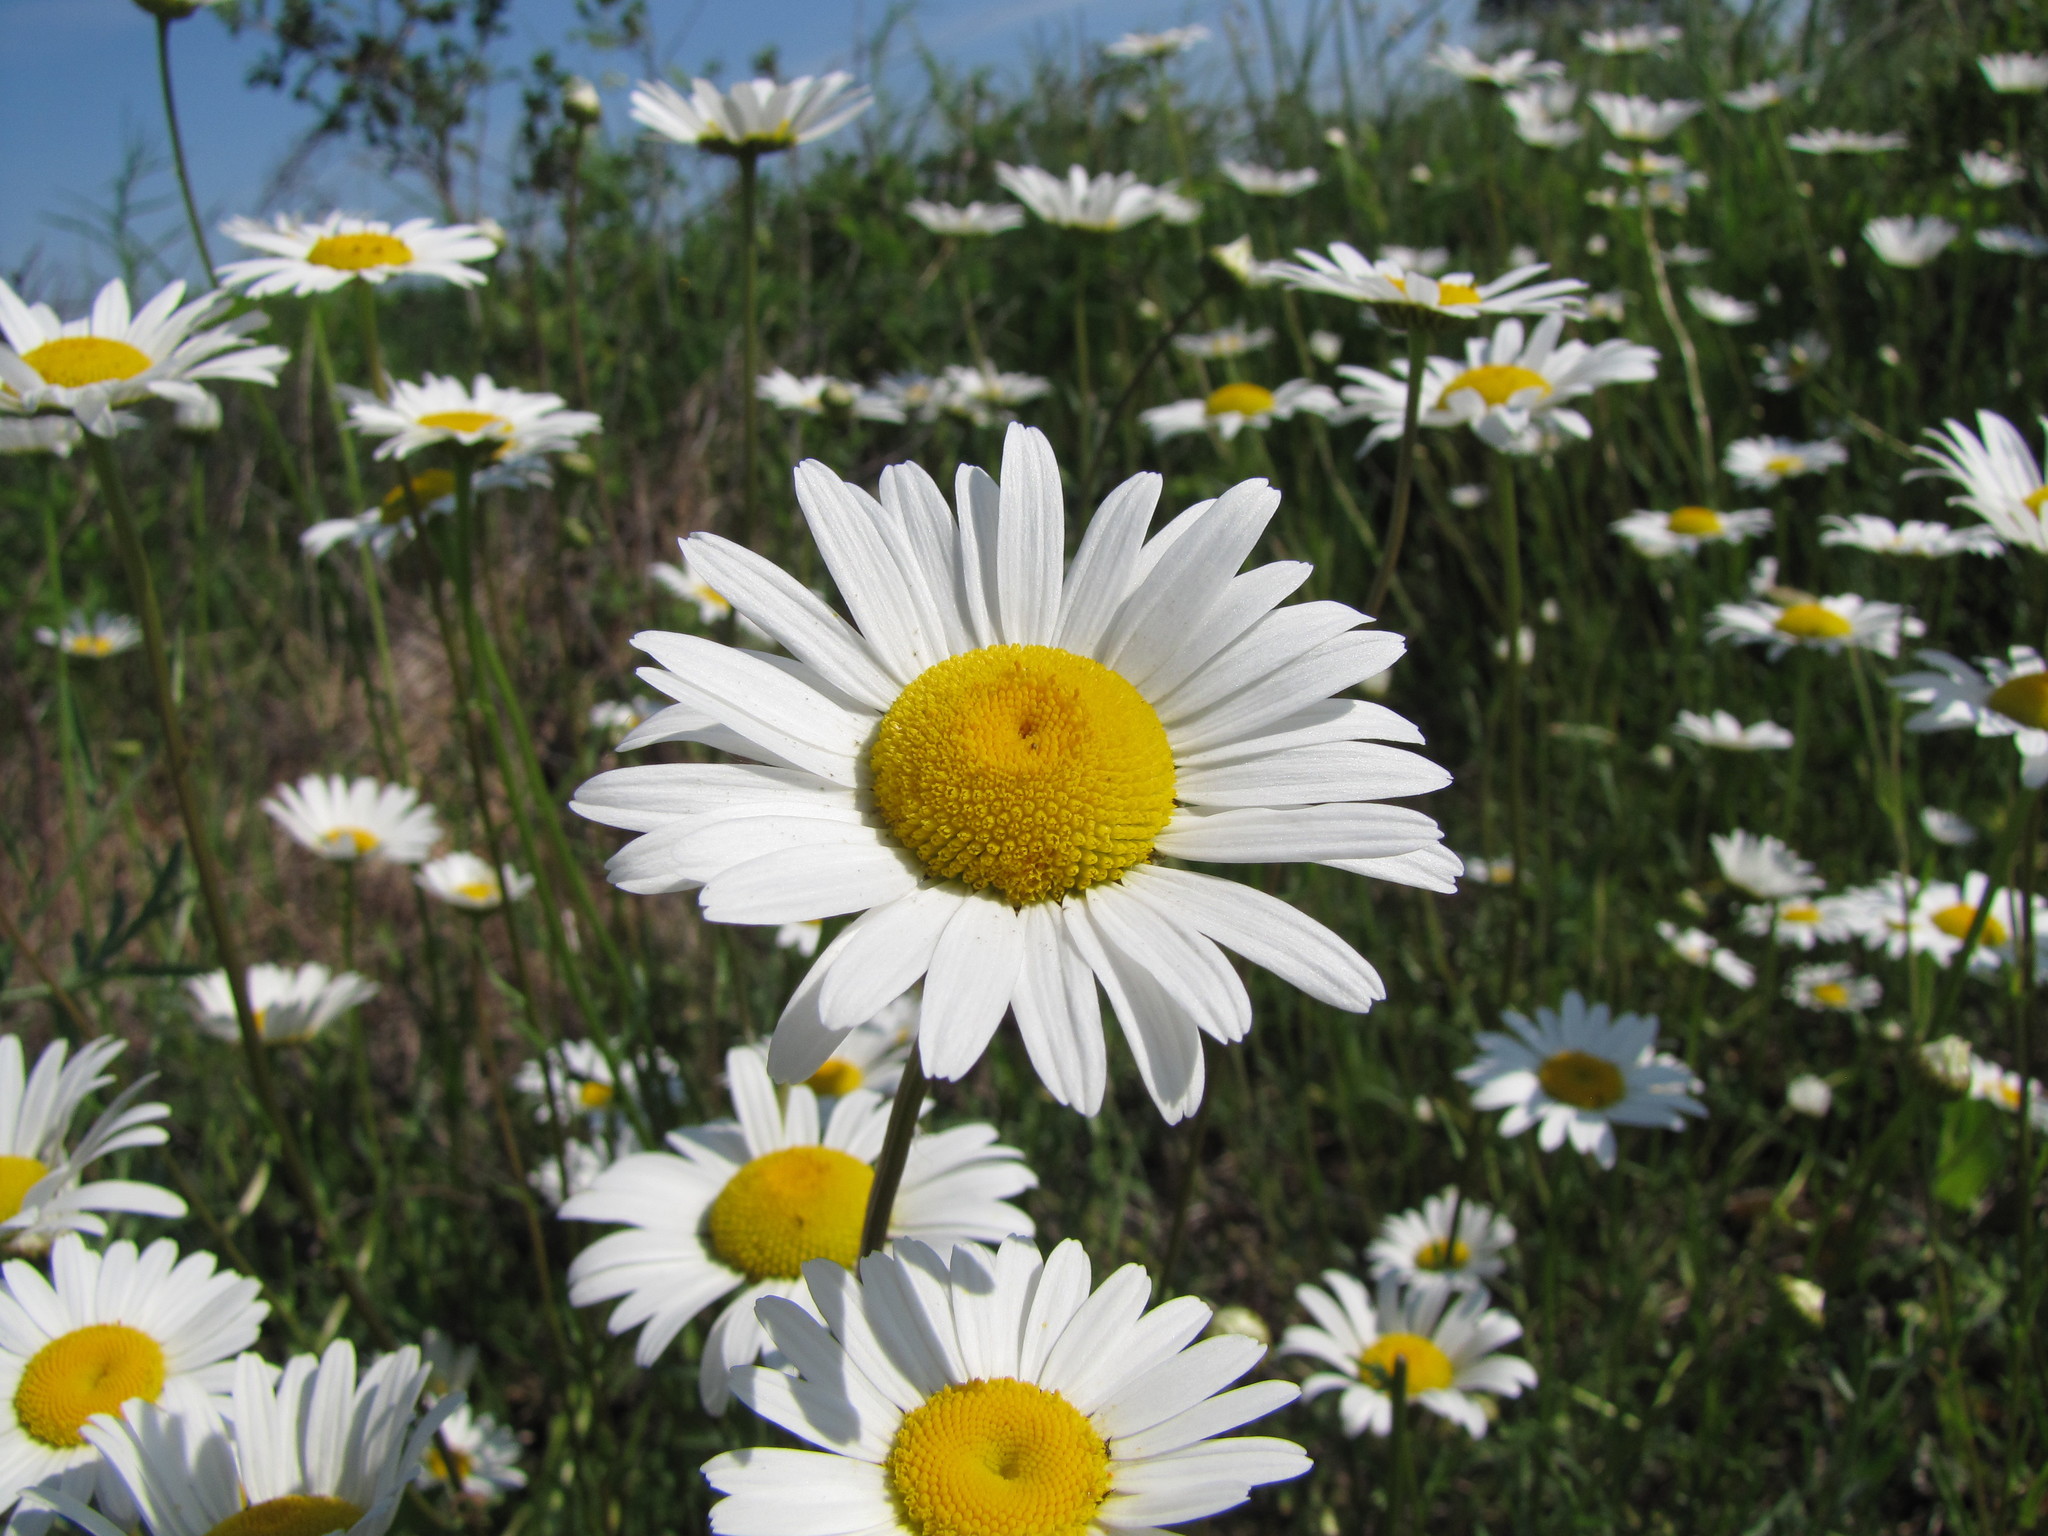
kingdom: Plantae
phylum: Tracheophyta
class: Magnoliopsida
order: Asterales
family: Asteraceae
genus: Leucanthemum
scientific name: Leucanthemum vulgare
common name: Oxeye daisy
